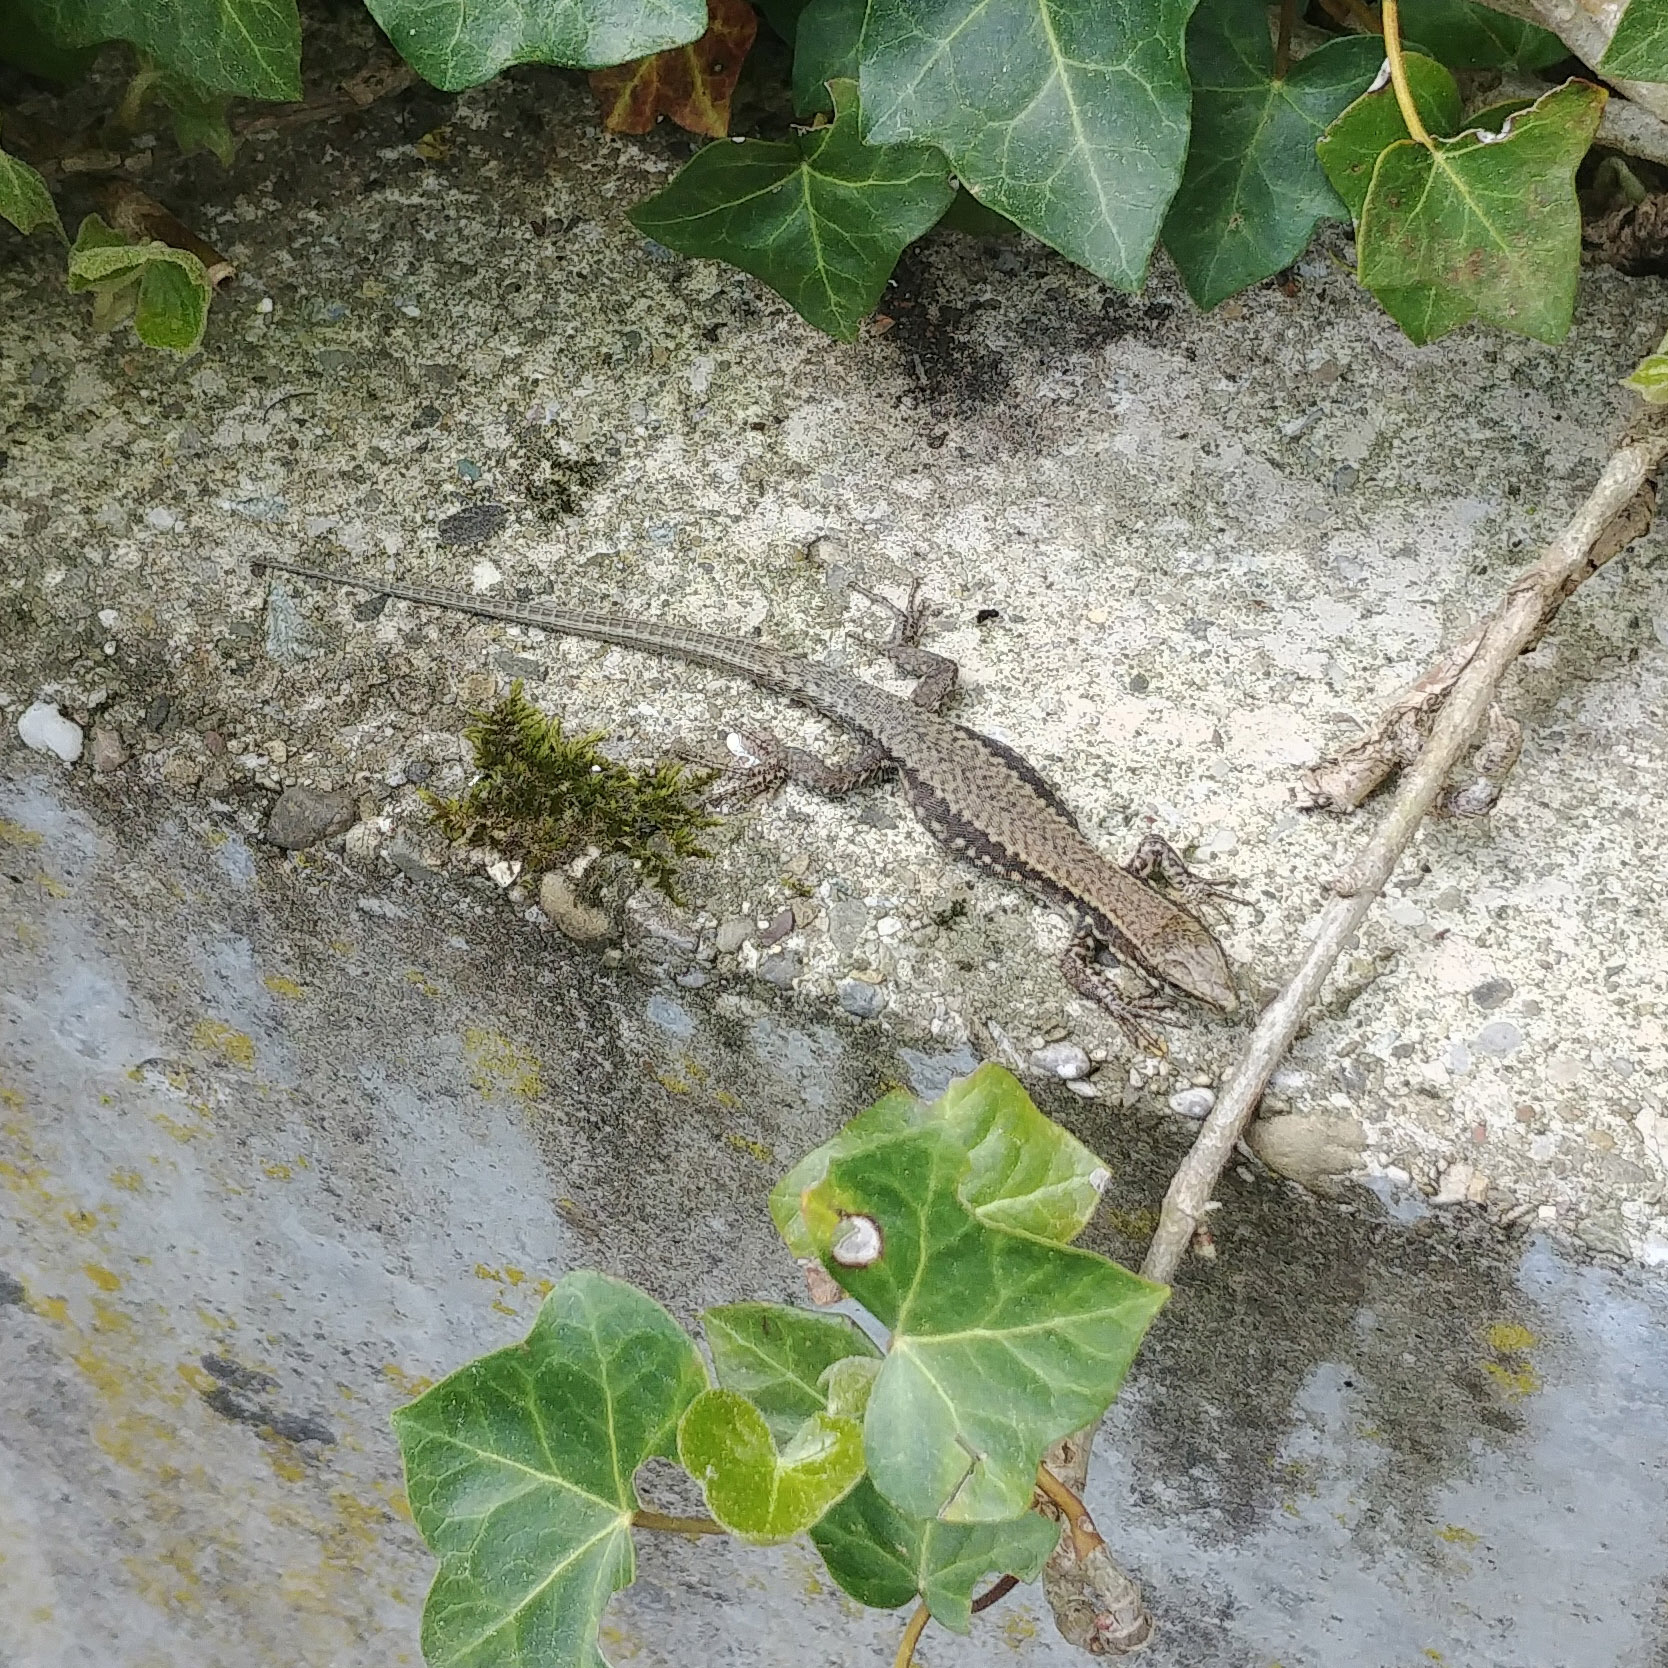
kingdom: Animalia
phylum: Chordata
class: Squamata
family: Lacertidae
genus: Podarcis
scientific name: Podarcis muralis
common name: Common wall lizard
